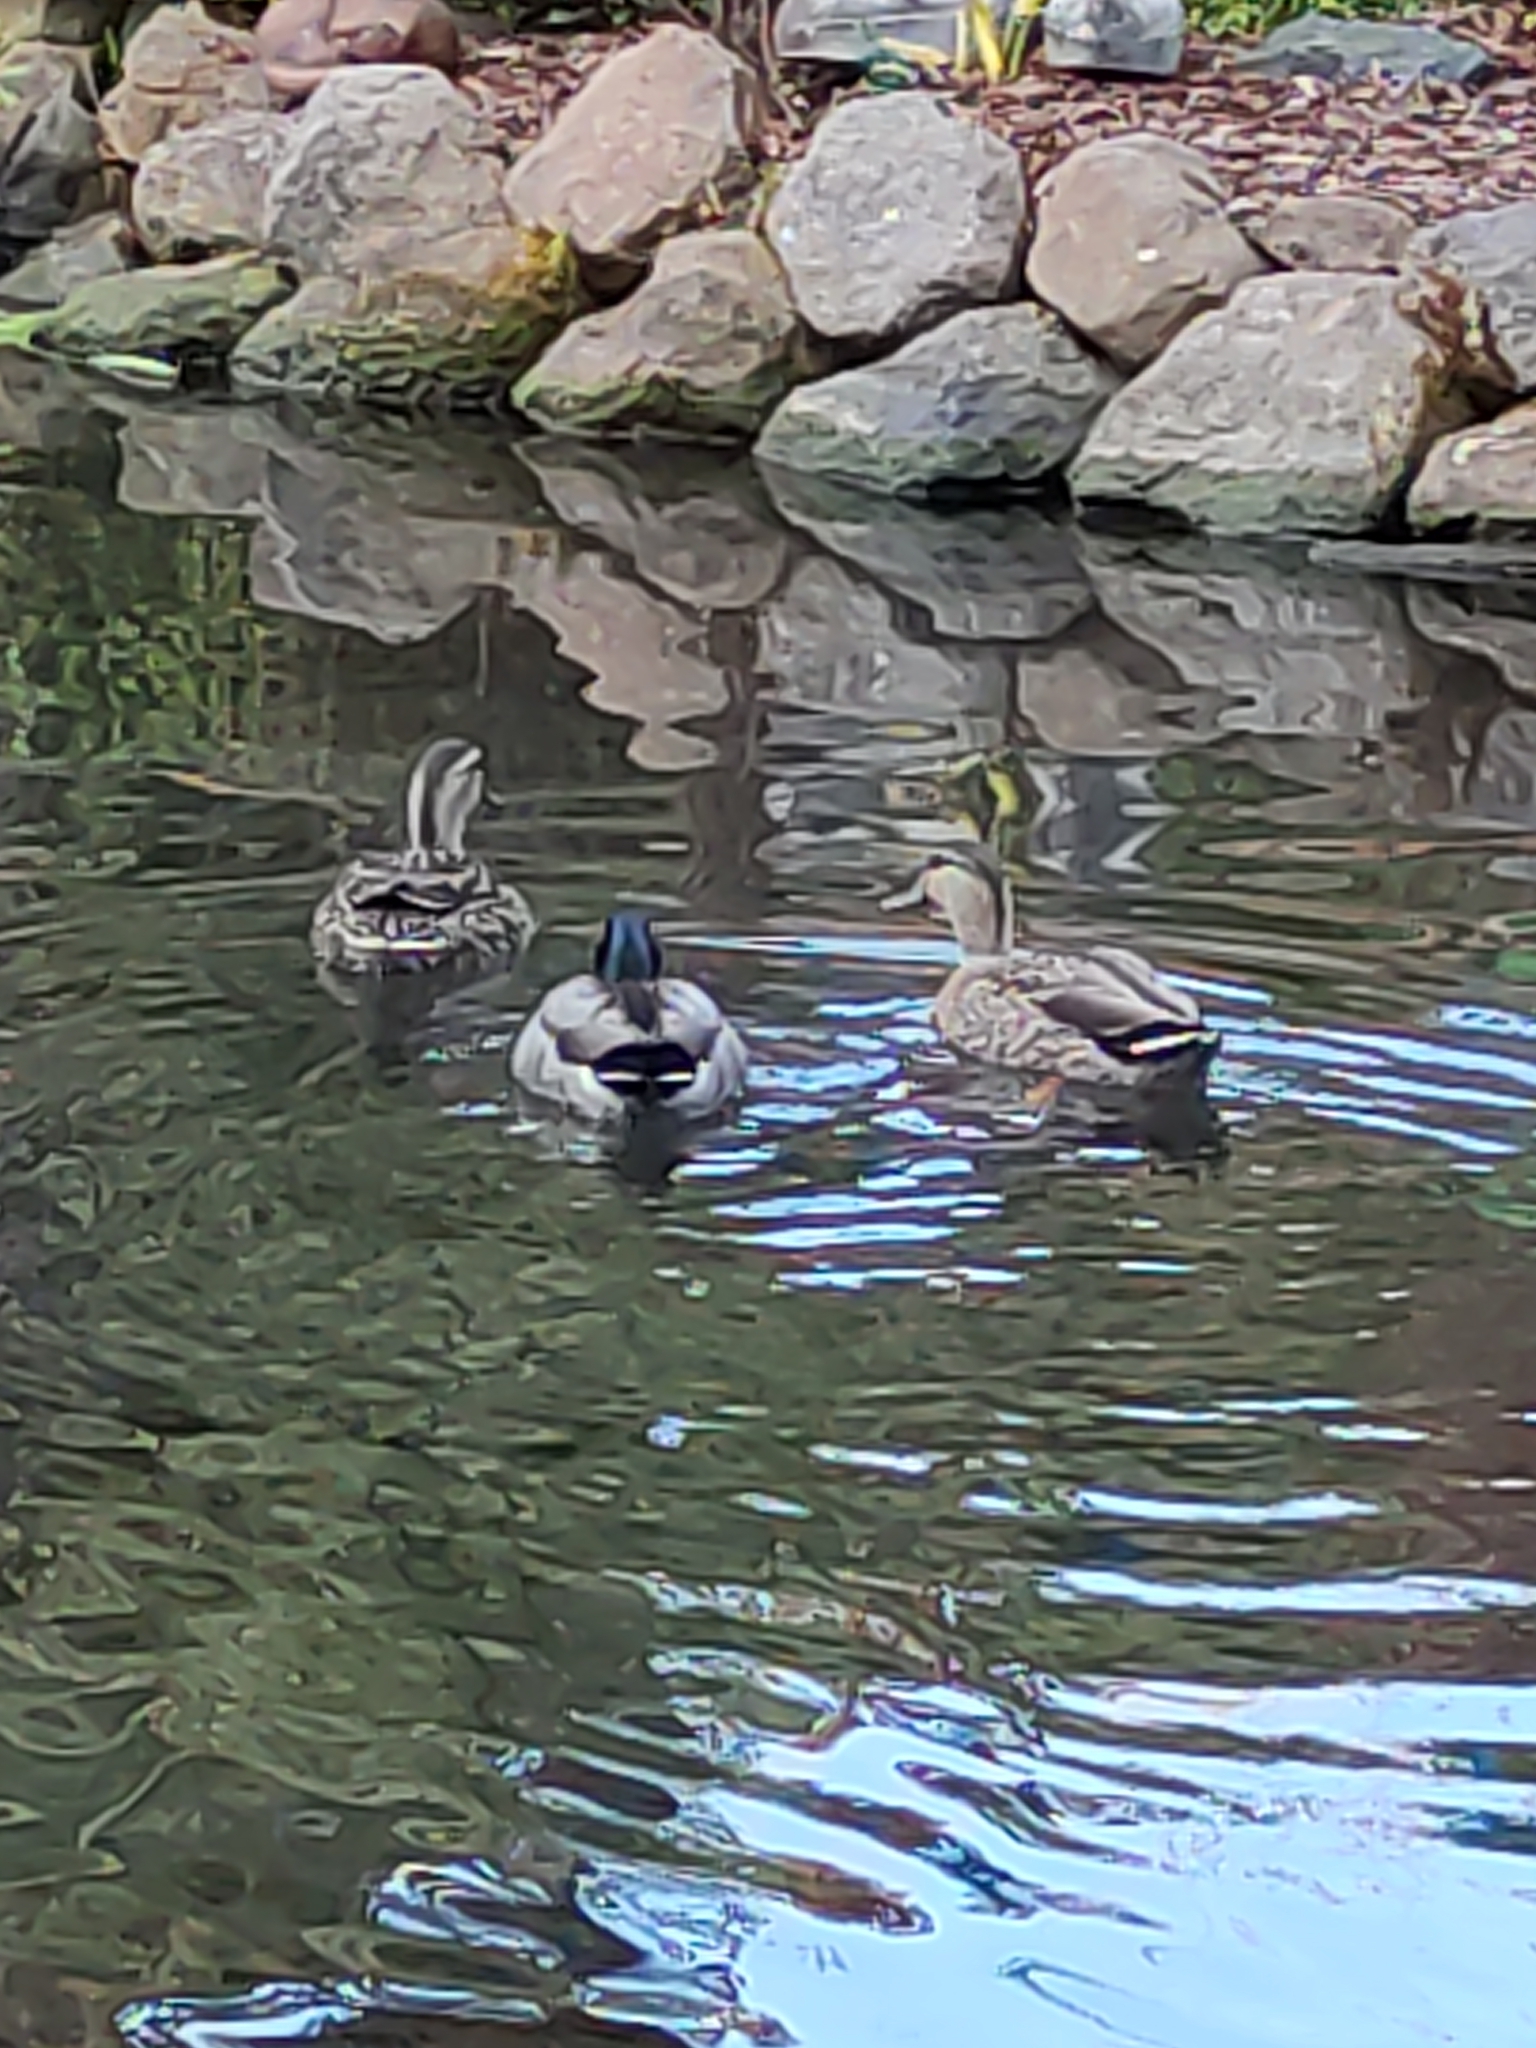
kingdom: Animalia
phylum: Chordata
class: Aves
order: Anseriformes
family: Anatidae
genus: Anas
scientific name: Anas platyrhynchos
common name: Mallard
